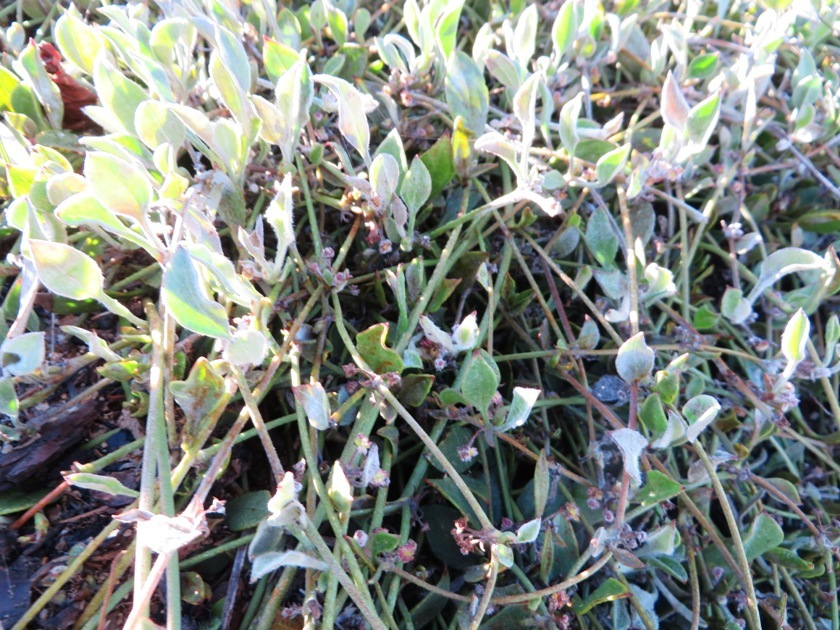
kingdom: Plantae
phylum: Tracheophyta
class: Magnoliopsida
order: Apiales
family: Apiaceae
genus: Centella
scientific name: Centella glabrata
